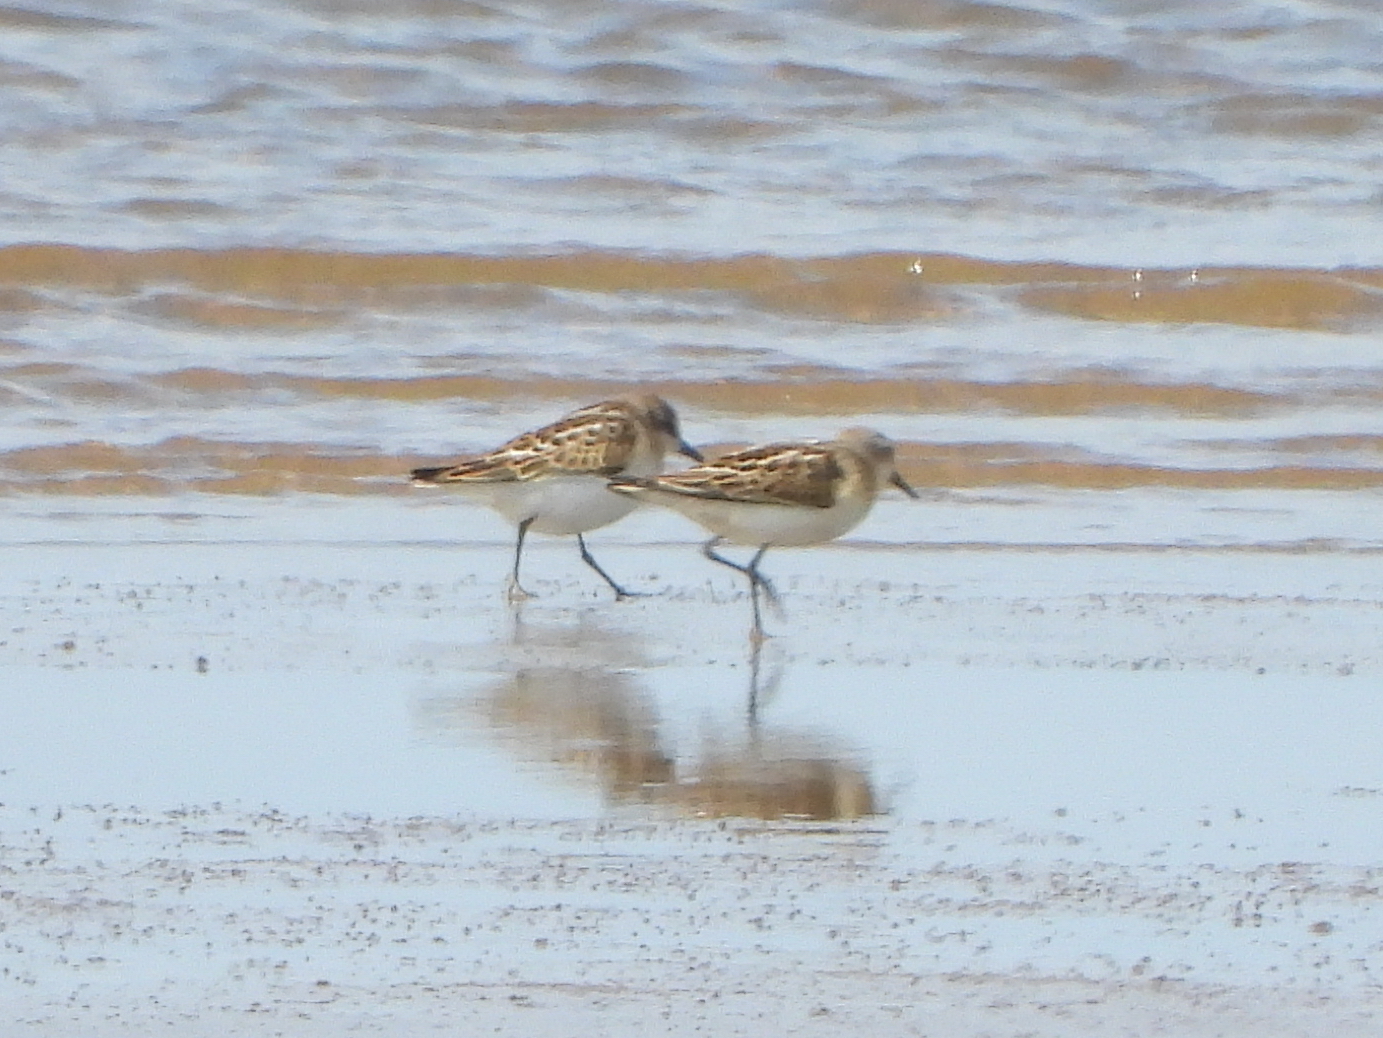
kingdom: Animalia
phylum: Chordata
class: Aves
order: Charadriiformes
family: Scolopacidae
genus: Calidris
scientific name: Calidris minuta
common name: Little stint
